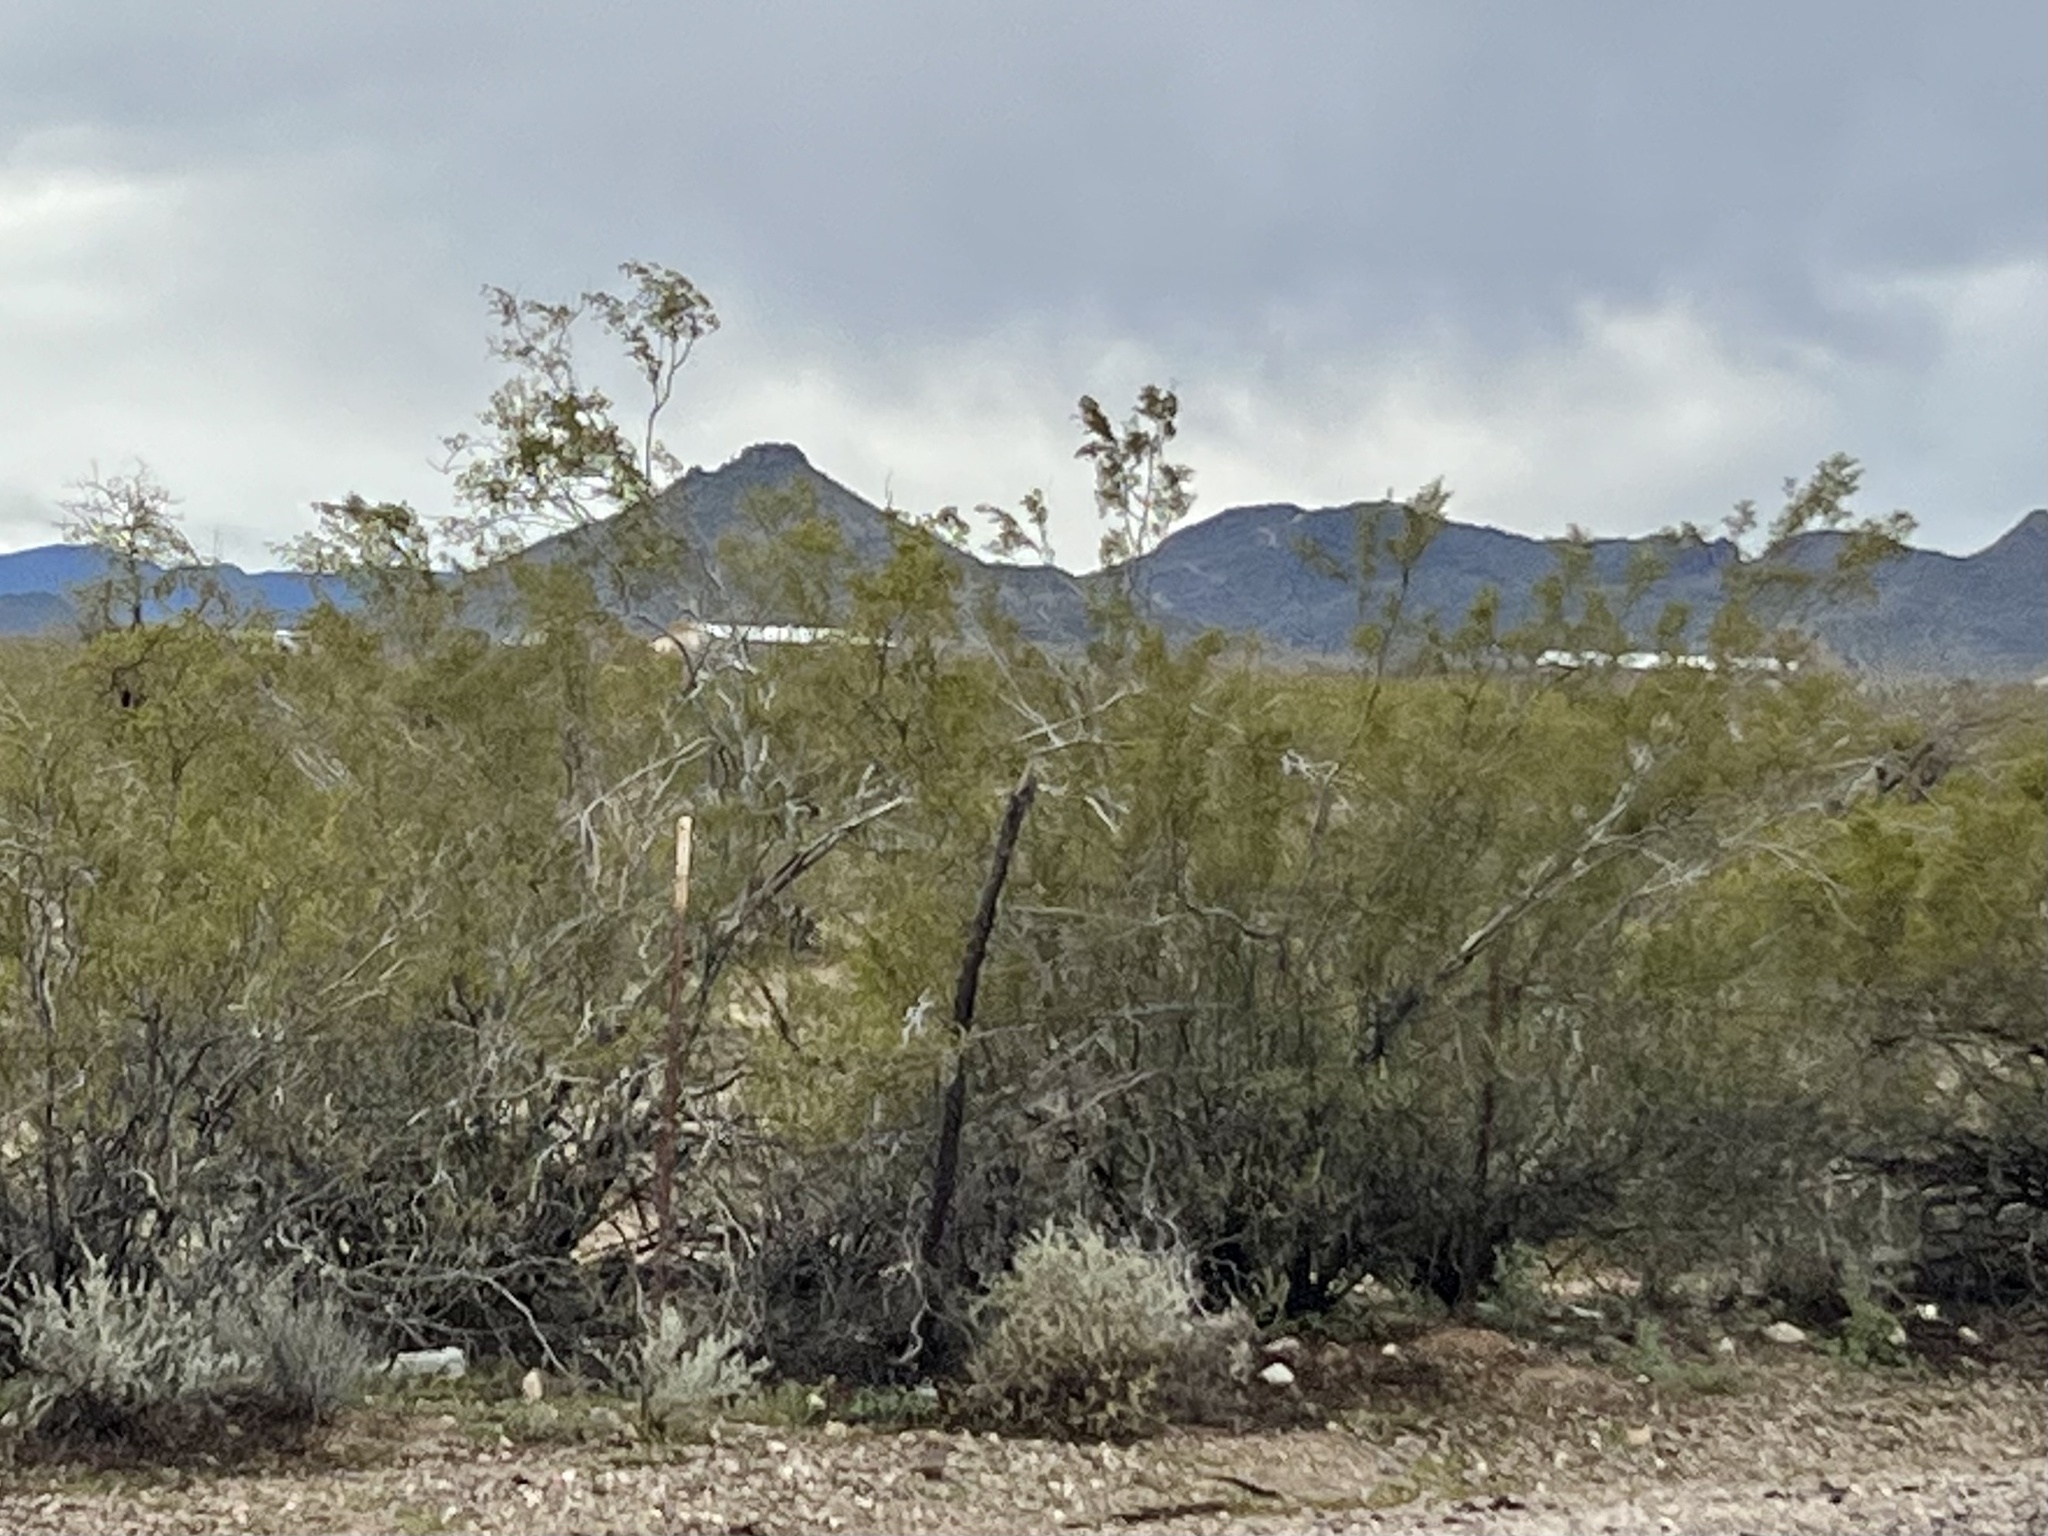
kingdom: Plantae
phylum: Tracheophyta
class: Magnoliopsida
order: Zygophyllales
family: Zygophyllaceae
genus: Larrea
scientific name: Larrea tridentata
